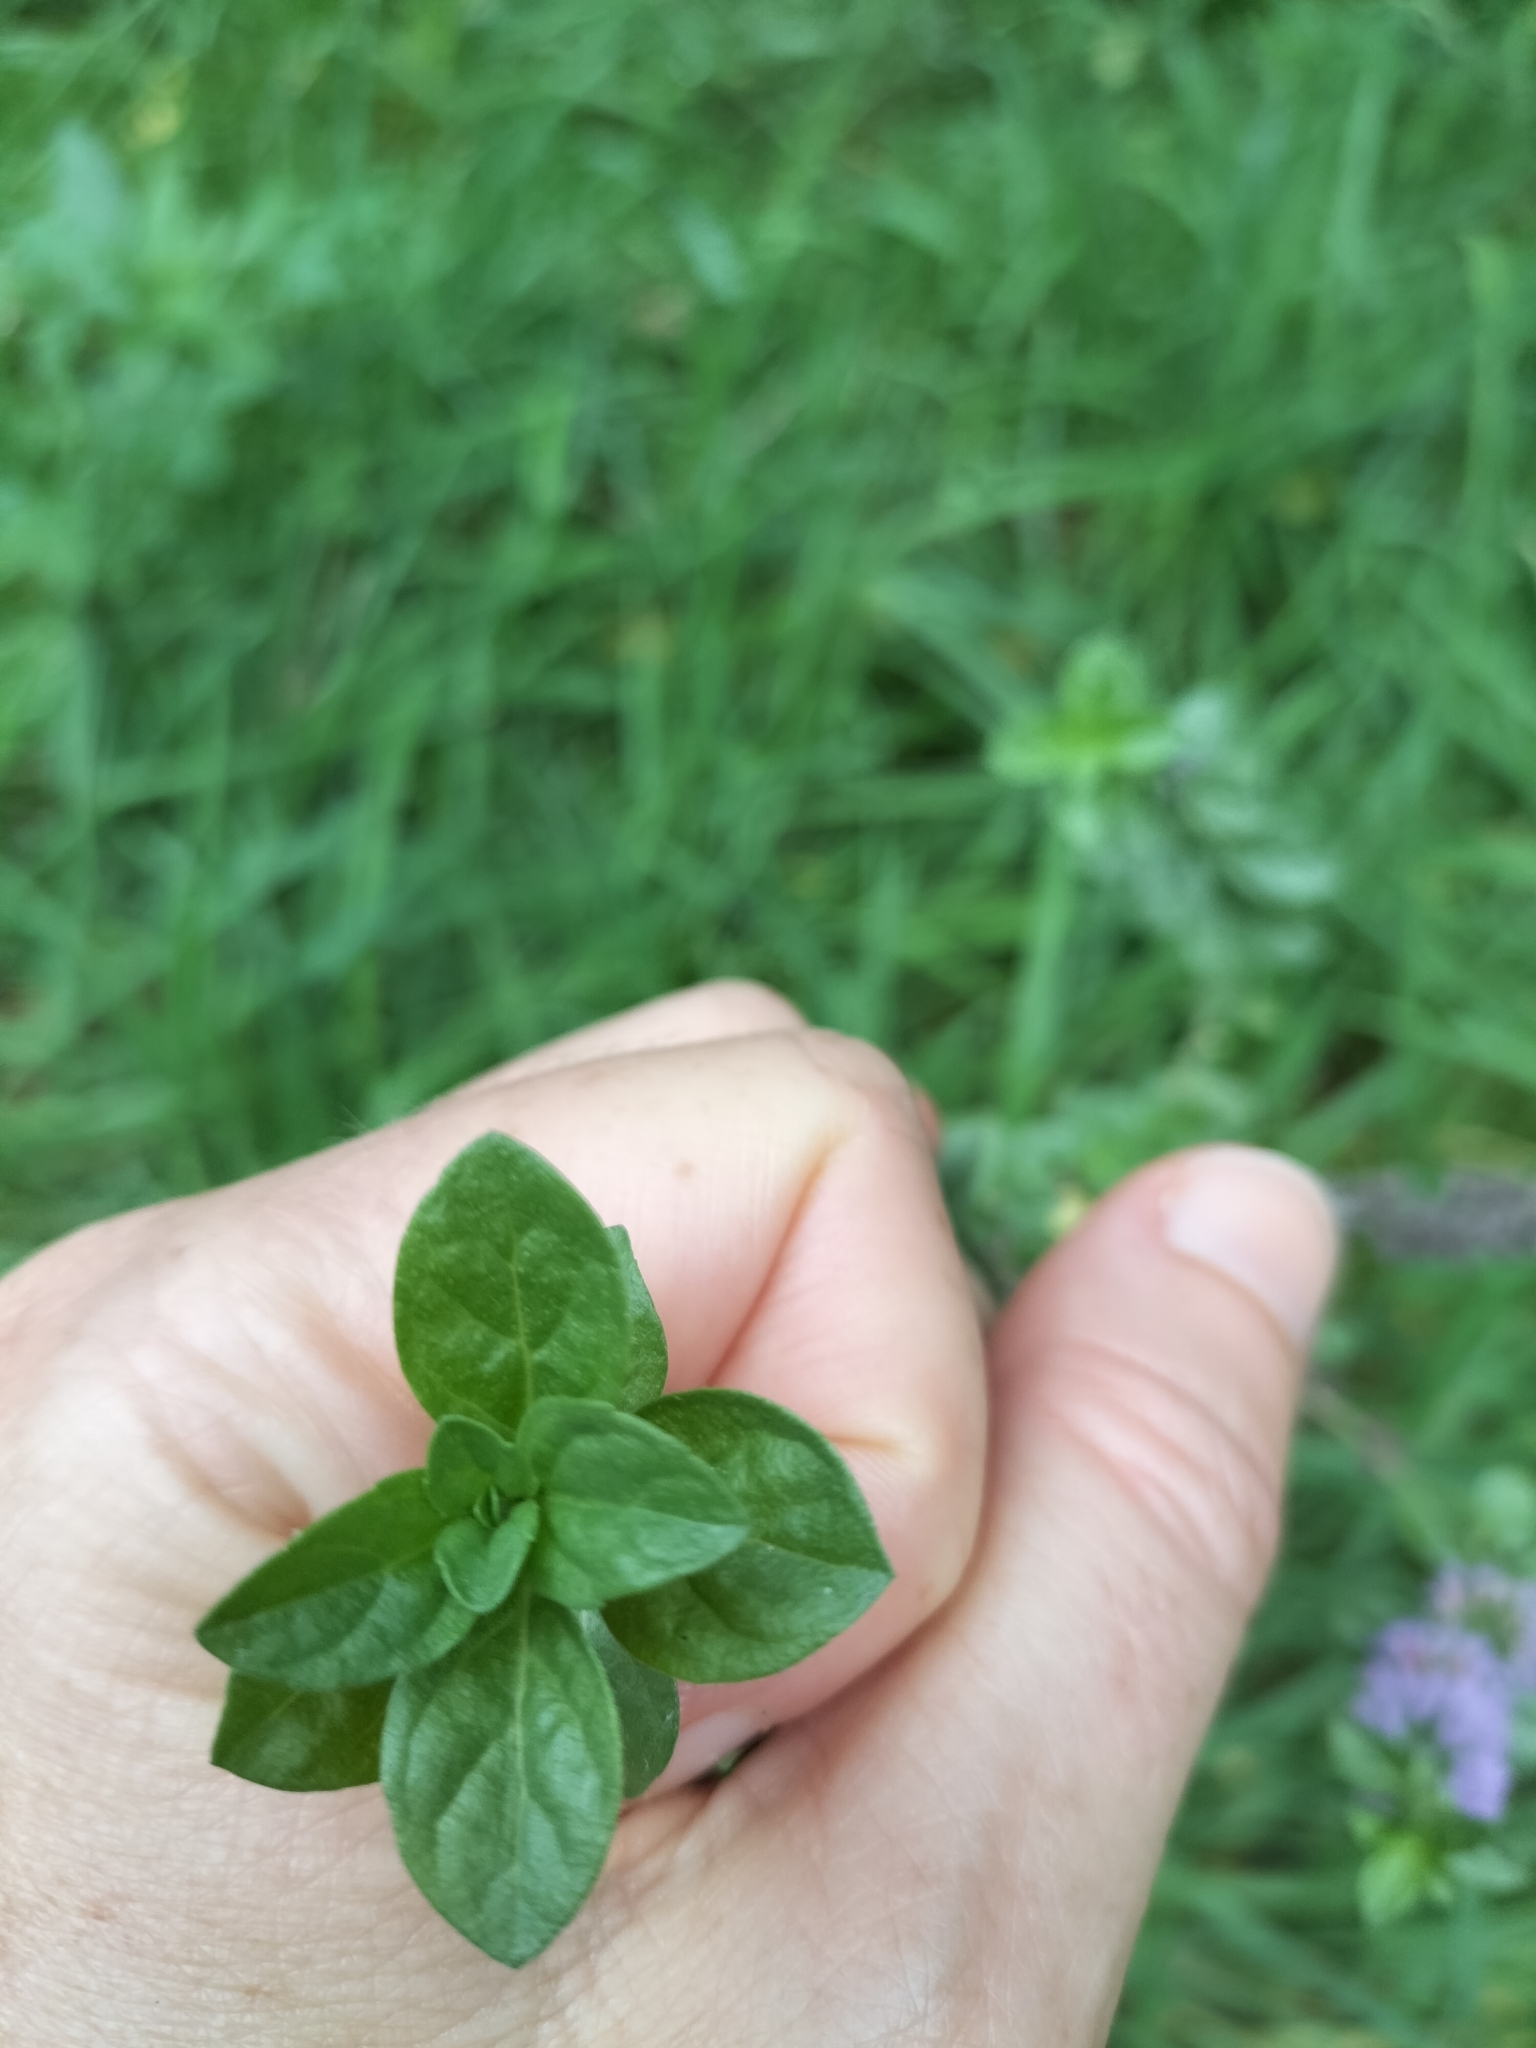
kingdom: Plantae
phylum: Tracheophyta
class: Magnoliopsida
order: Lamiales
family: Lamiaceae
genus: Mentha
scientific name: Mentha pulegium
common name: Pennyroyal
